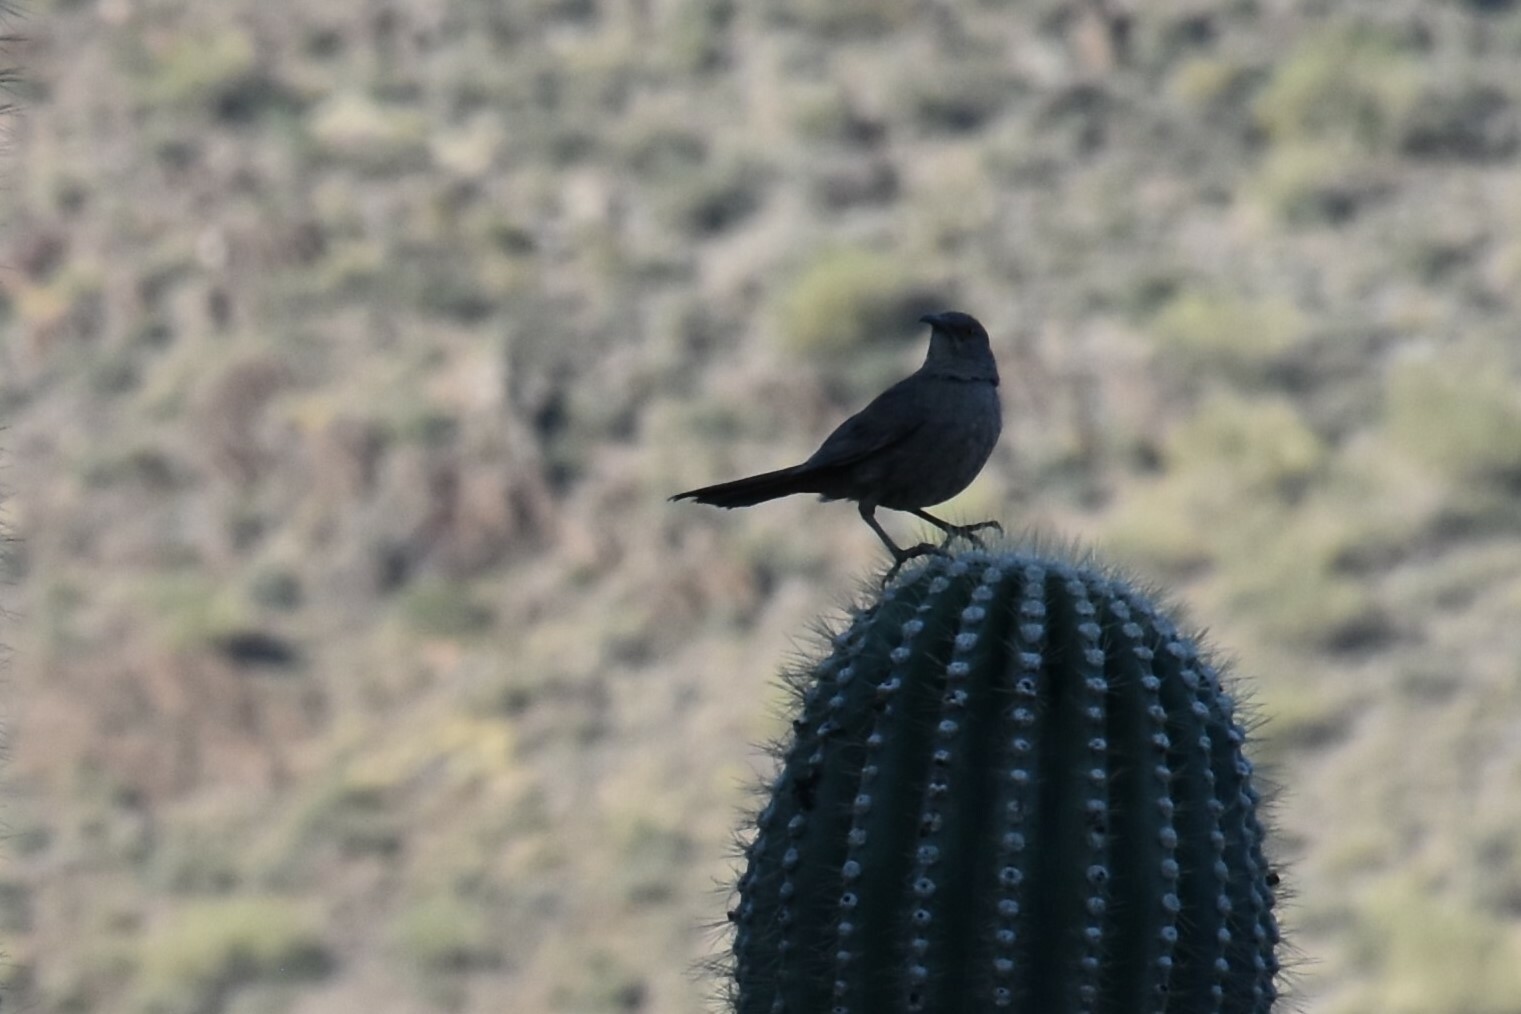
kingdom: Animalia
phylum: Chordata
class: Aves
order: Passeriformes
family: Mimidae
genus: Toxostoma
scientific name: Toxostoma curvirostre
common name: Curve-billed thrasher
